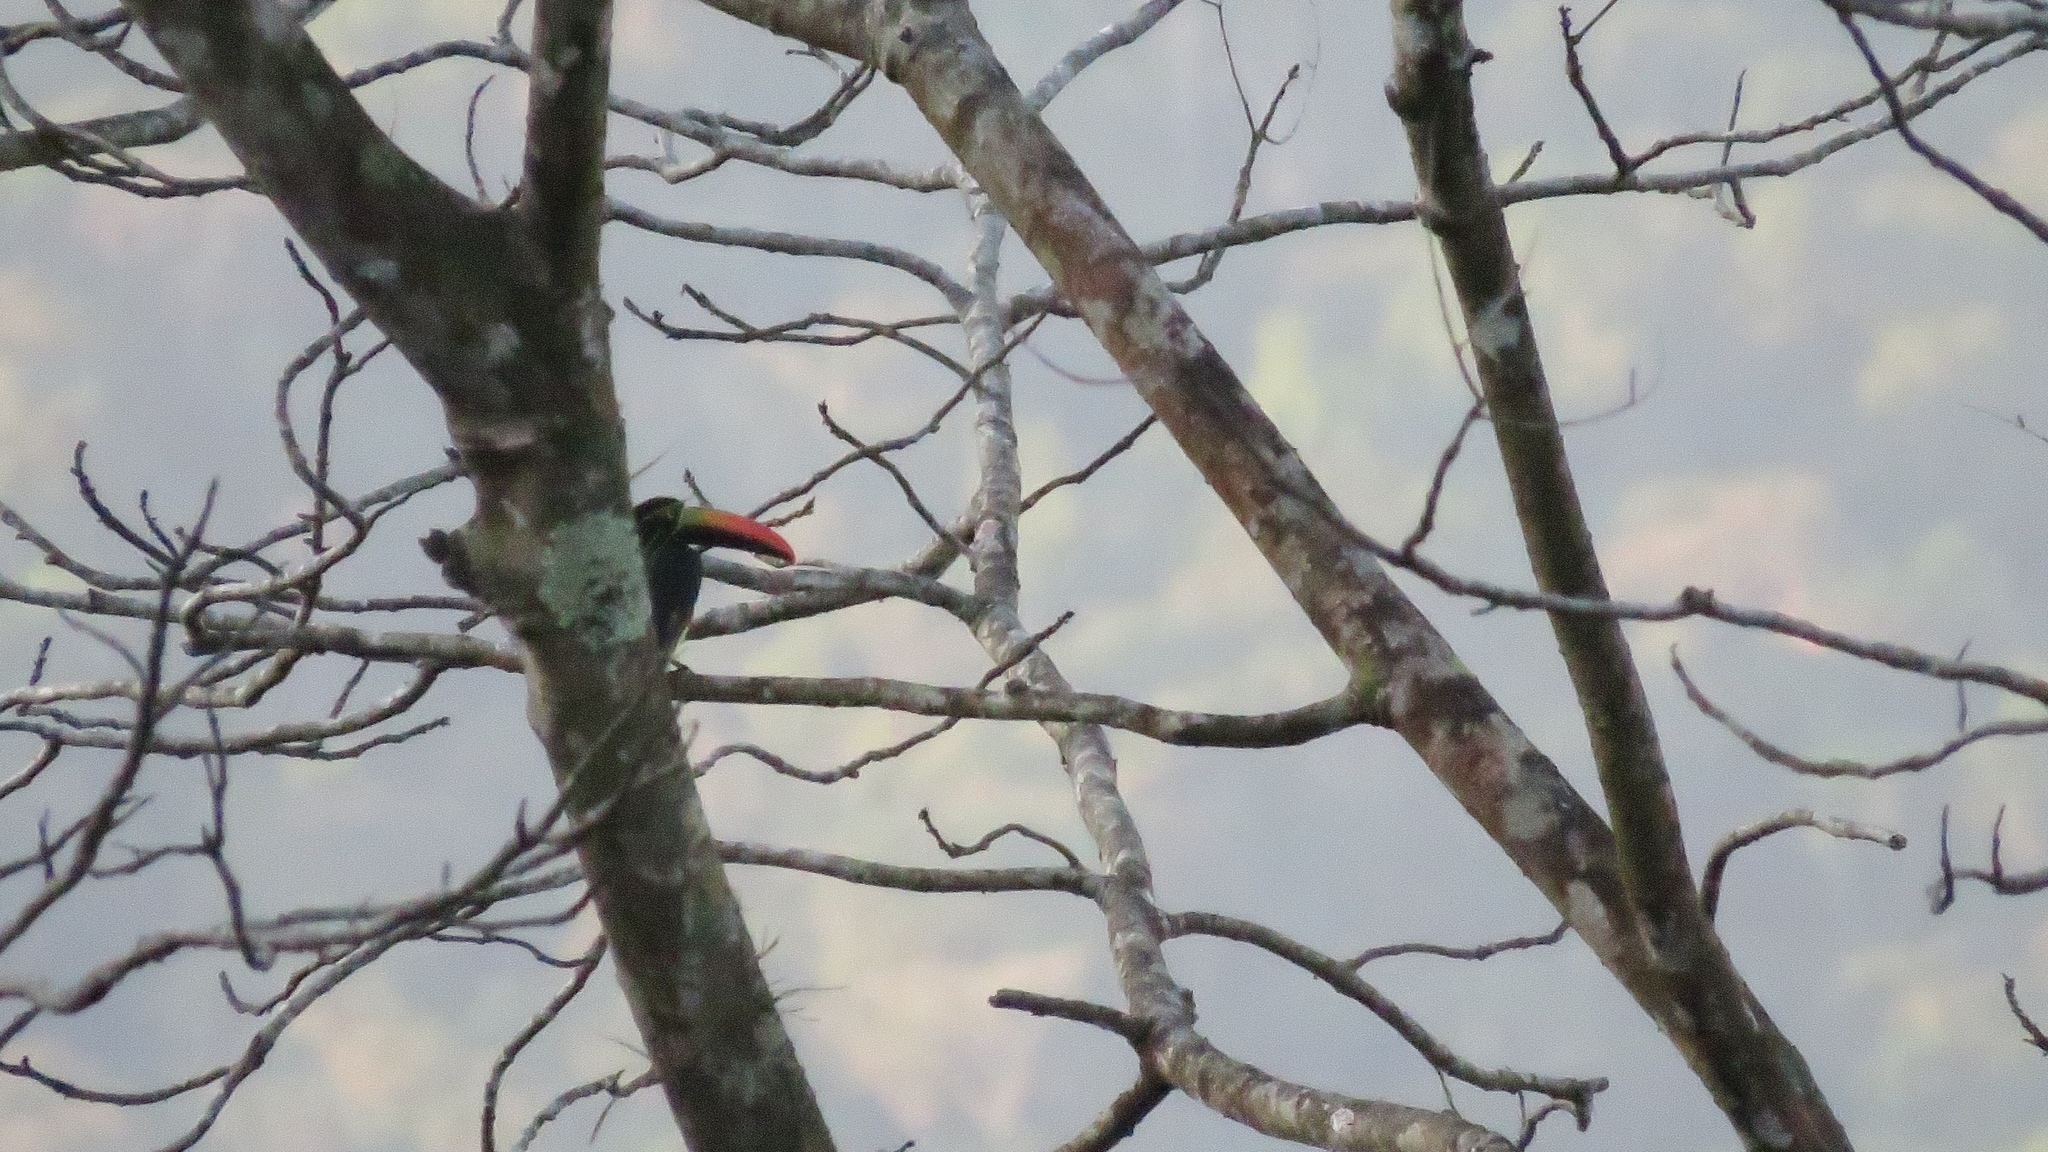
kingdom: Animalia
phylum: Chordata
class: Aves
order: Piciformes
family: Ramphastidae
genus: Pteroglossus
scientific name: Pteroglossus frantzii
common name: Fiery-billed aracari
